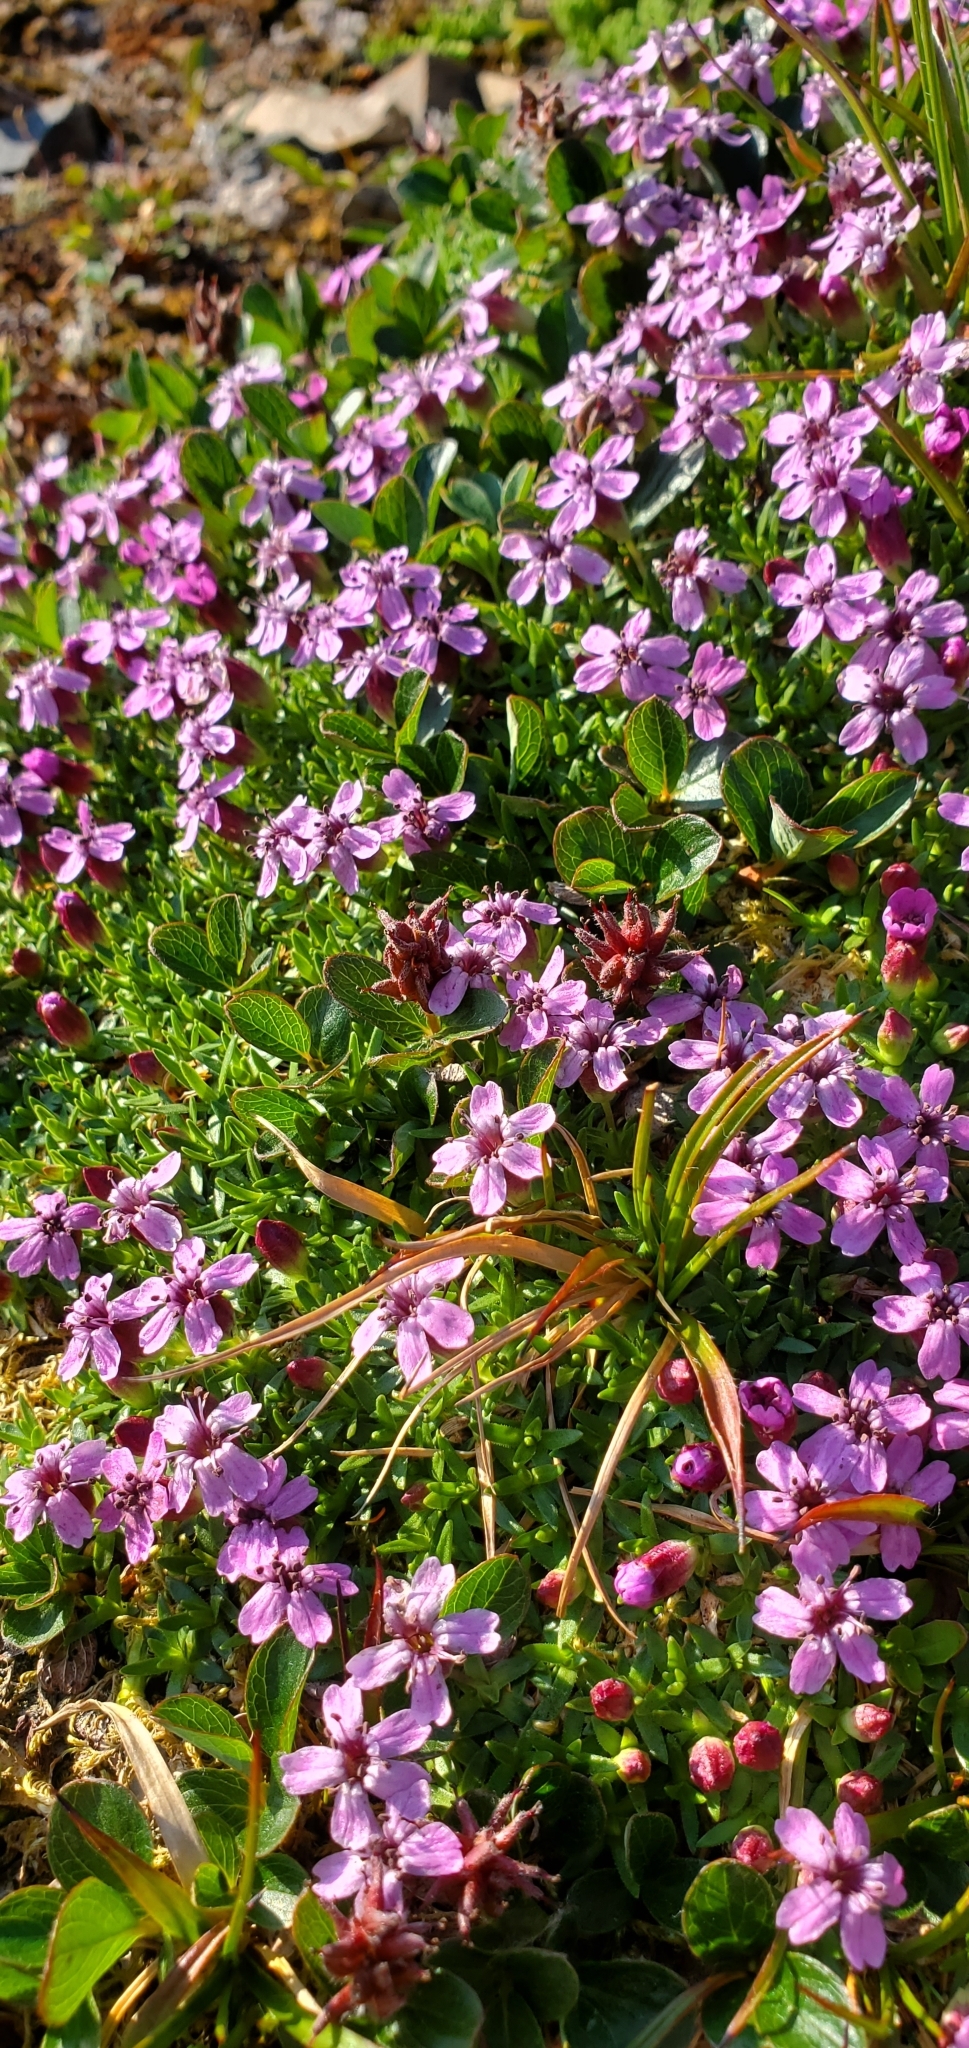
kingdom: Plantae
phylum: Tracheophyta
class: Magnoliopsida
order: Caryophyllales
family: Caryophyllaceae
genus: Silene
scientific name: Silene acaulis
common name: Moss campion
